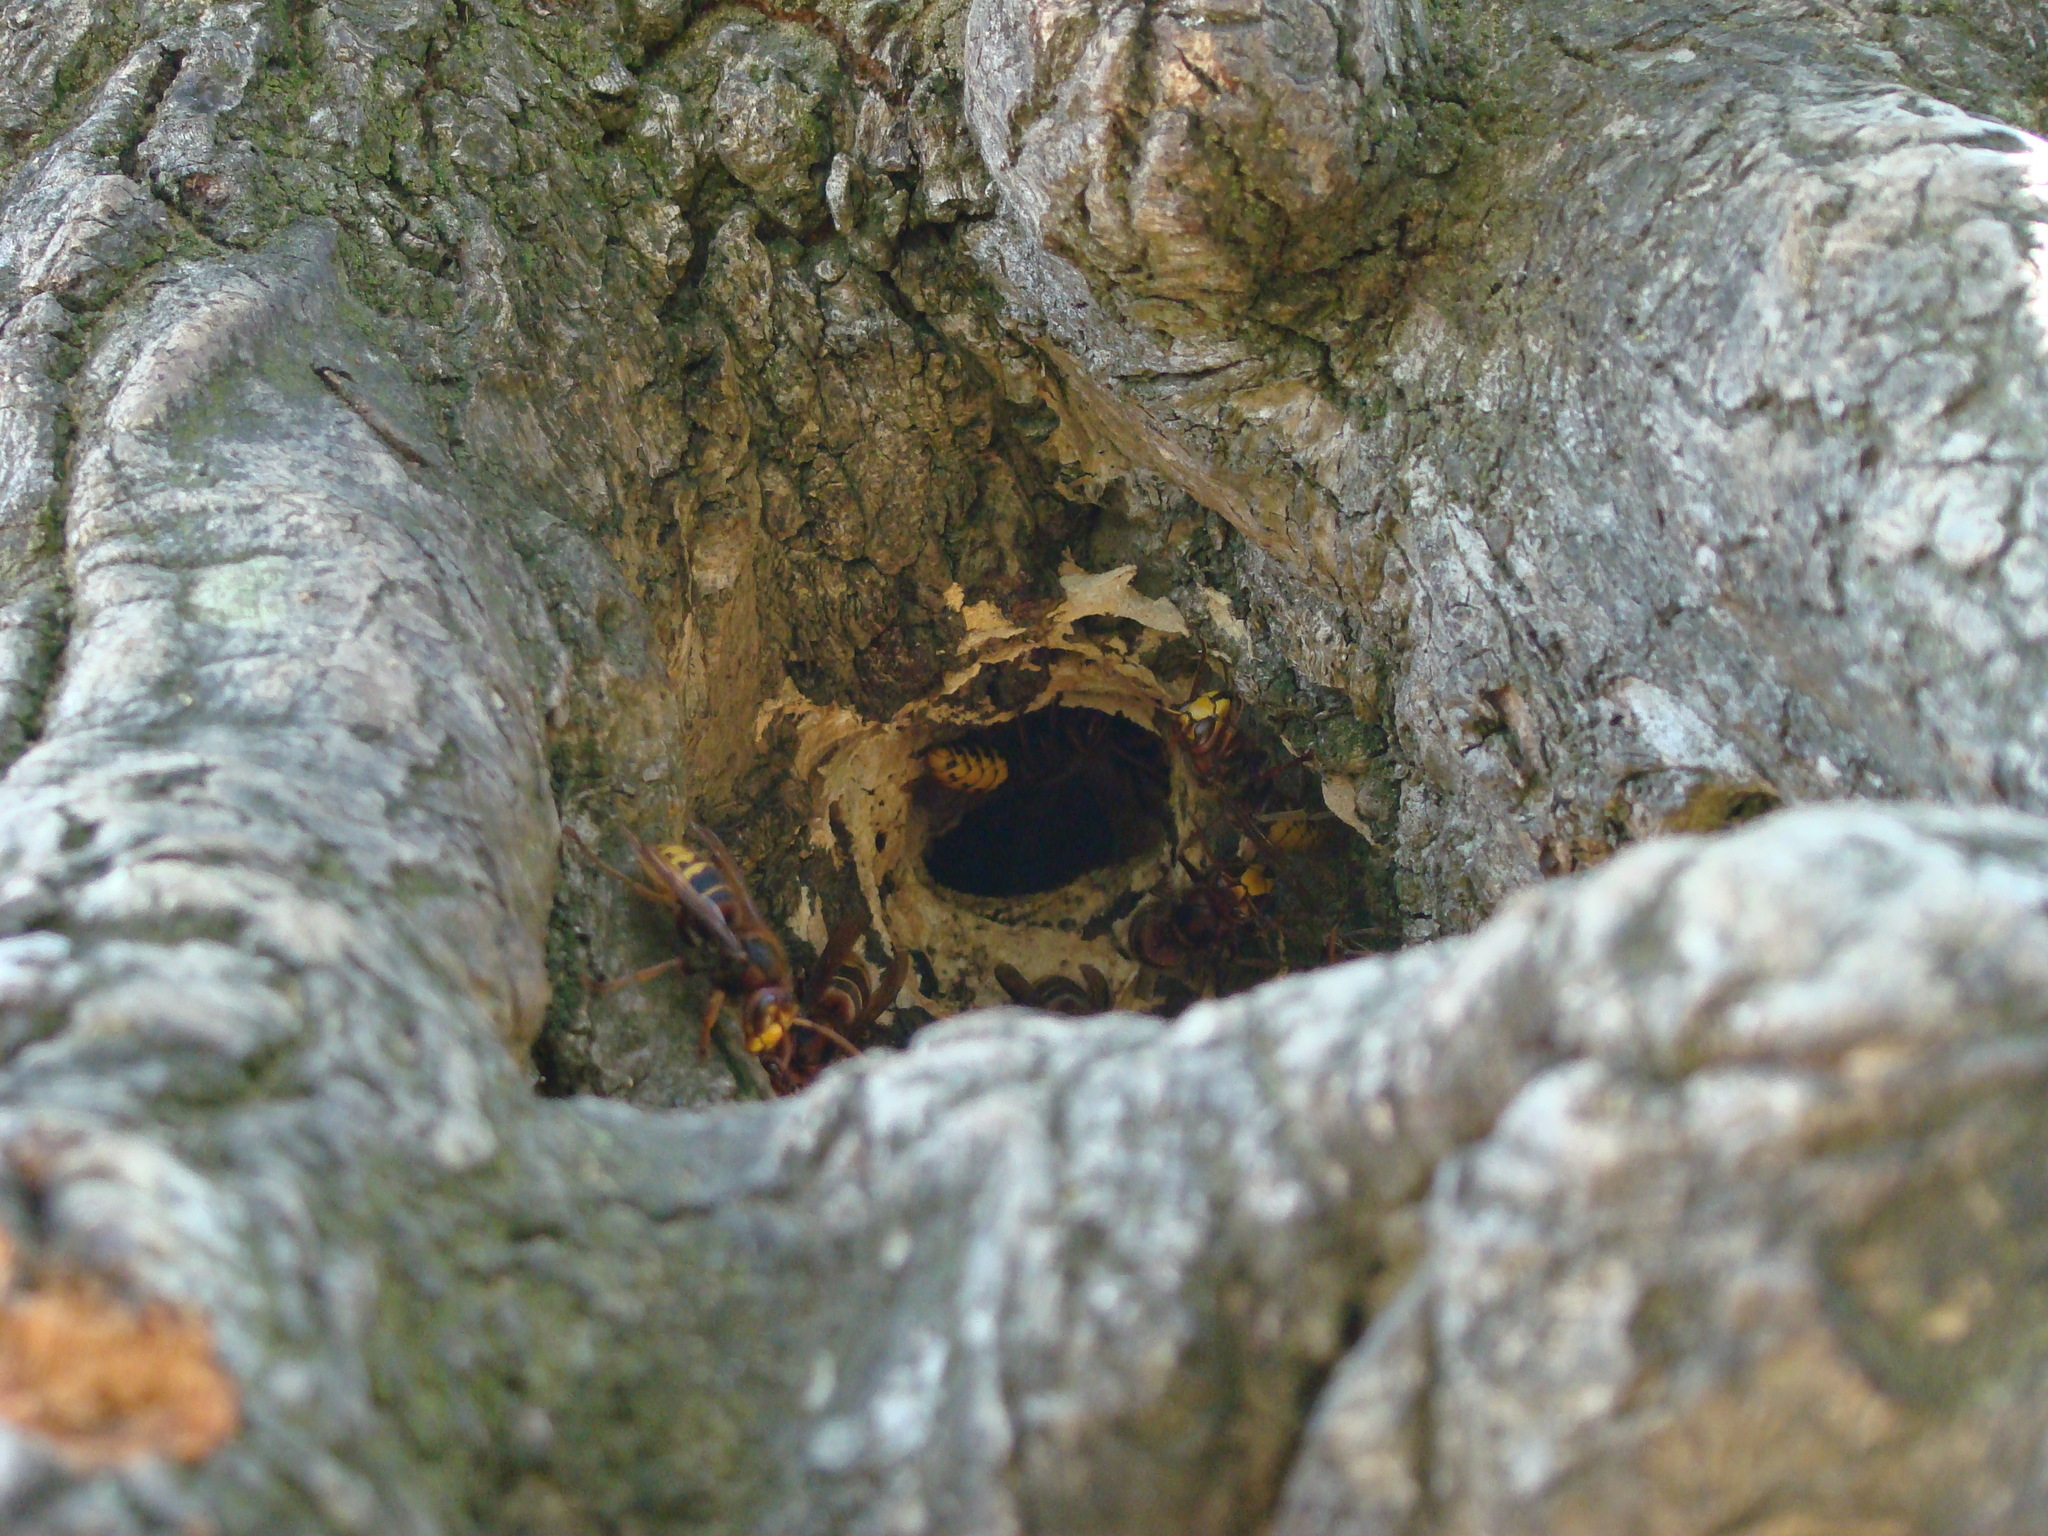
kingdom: Animalia
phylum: Arthropoda
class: Insecta
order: Hymenoptera
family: Vespidae
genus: Vespa
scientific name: Vespa crabro
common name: Hornet
